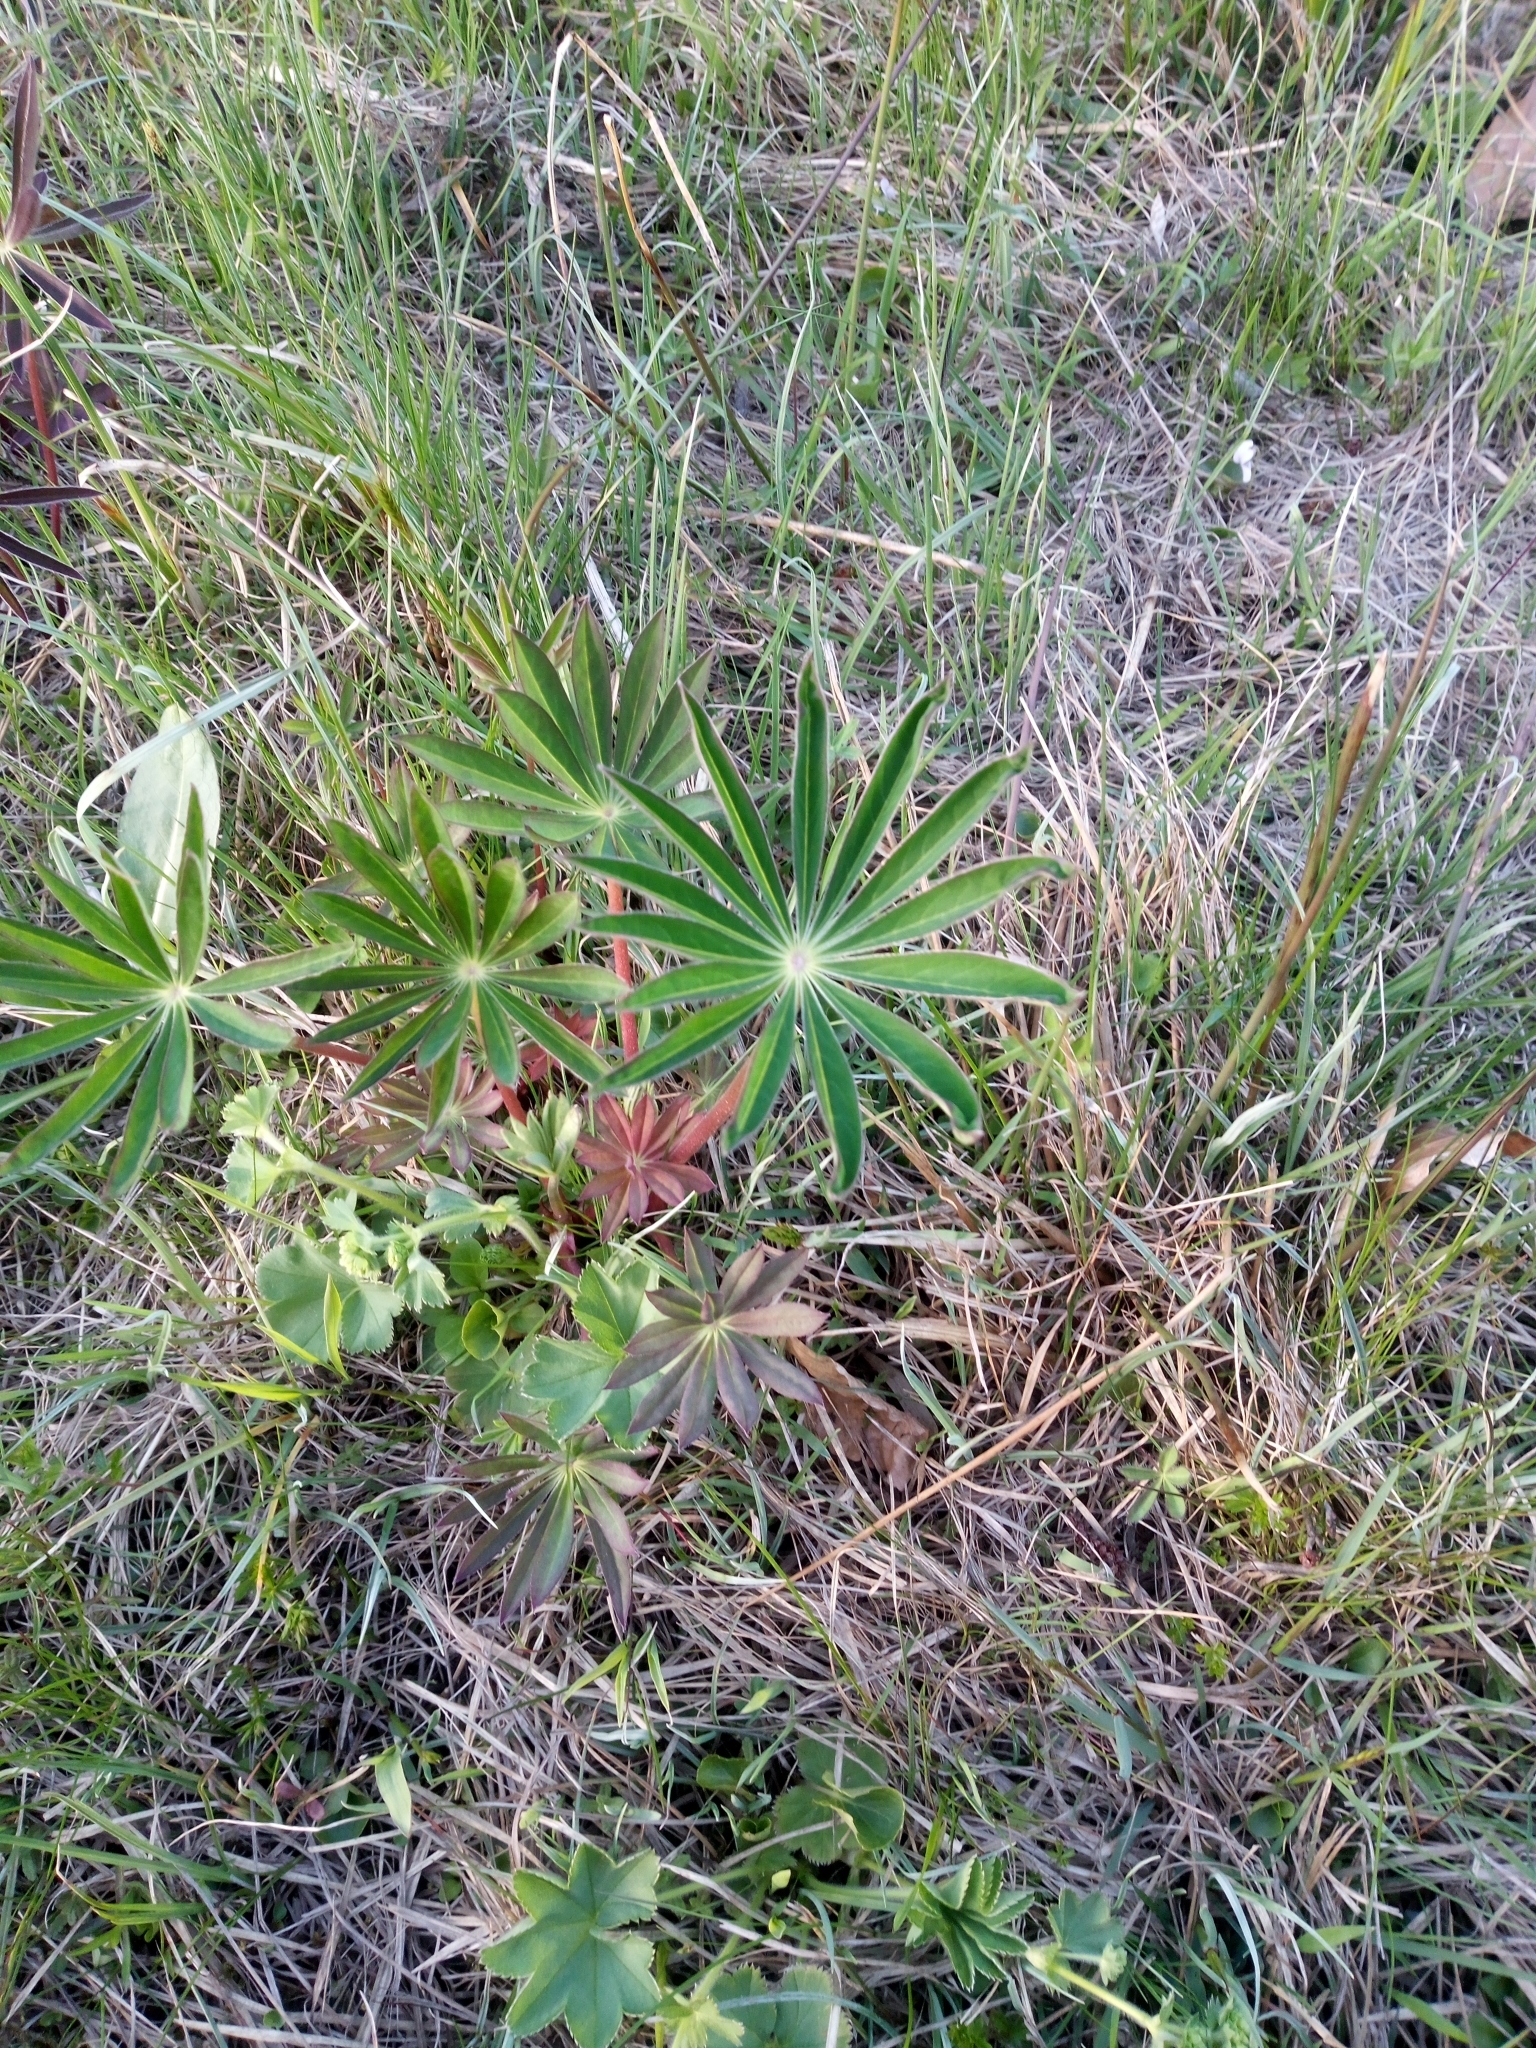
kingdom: Plantae
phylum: Tracheophyta
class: Magnoliopsida
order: Fabales
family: Fabaceae
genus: Lupinus
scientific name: Lupinus polyphyllus
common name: Garden lupin
